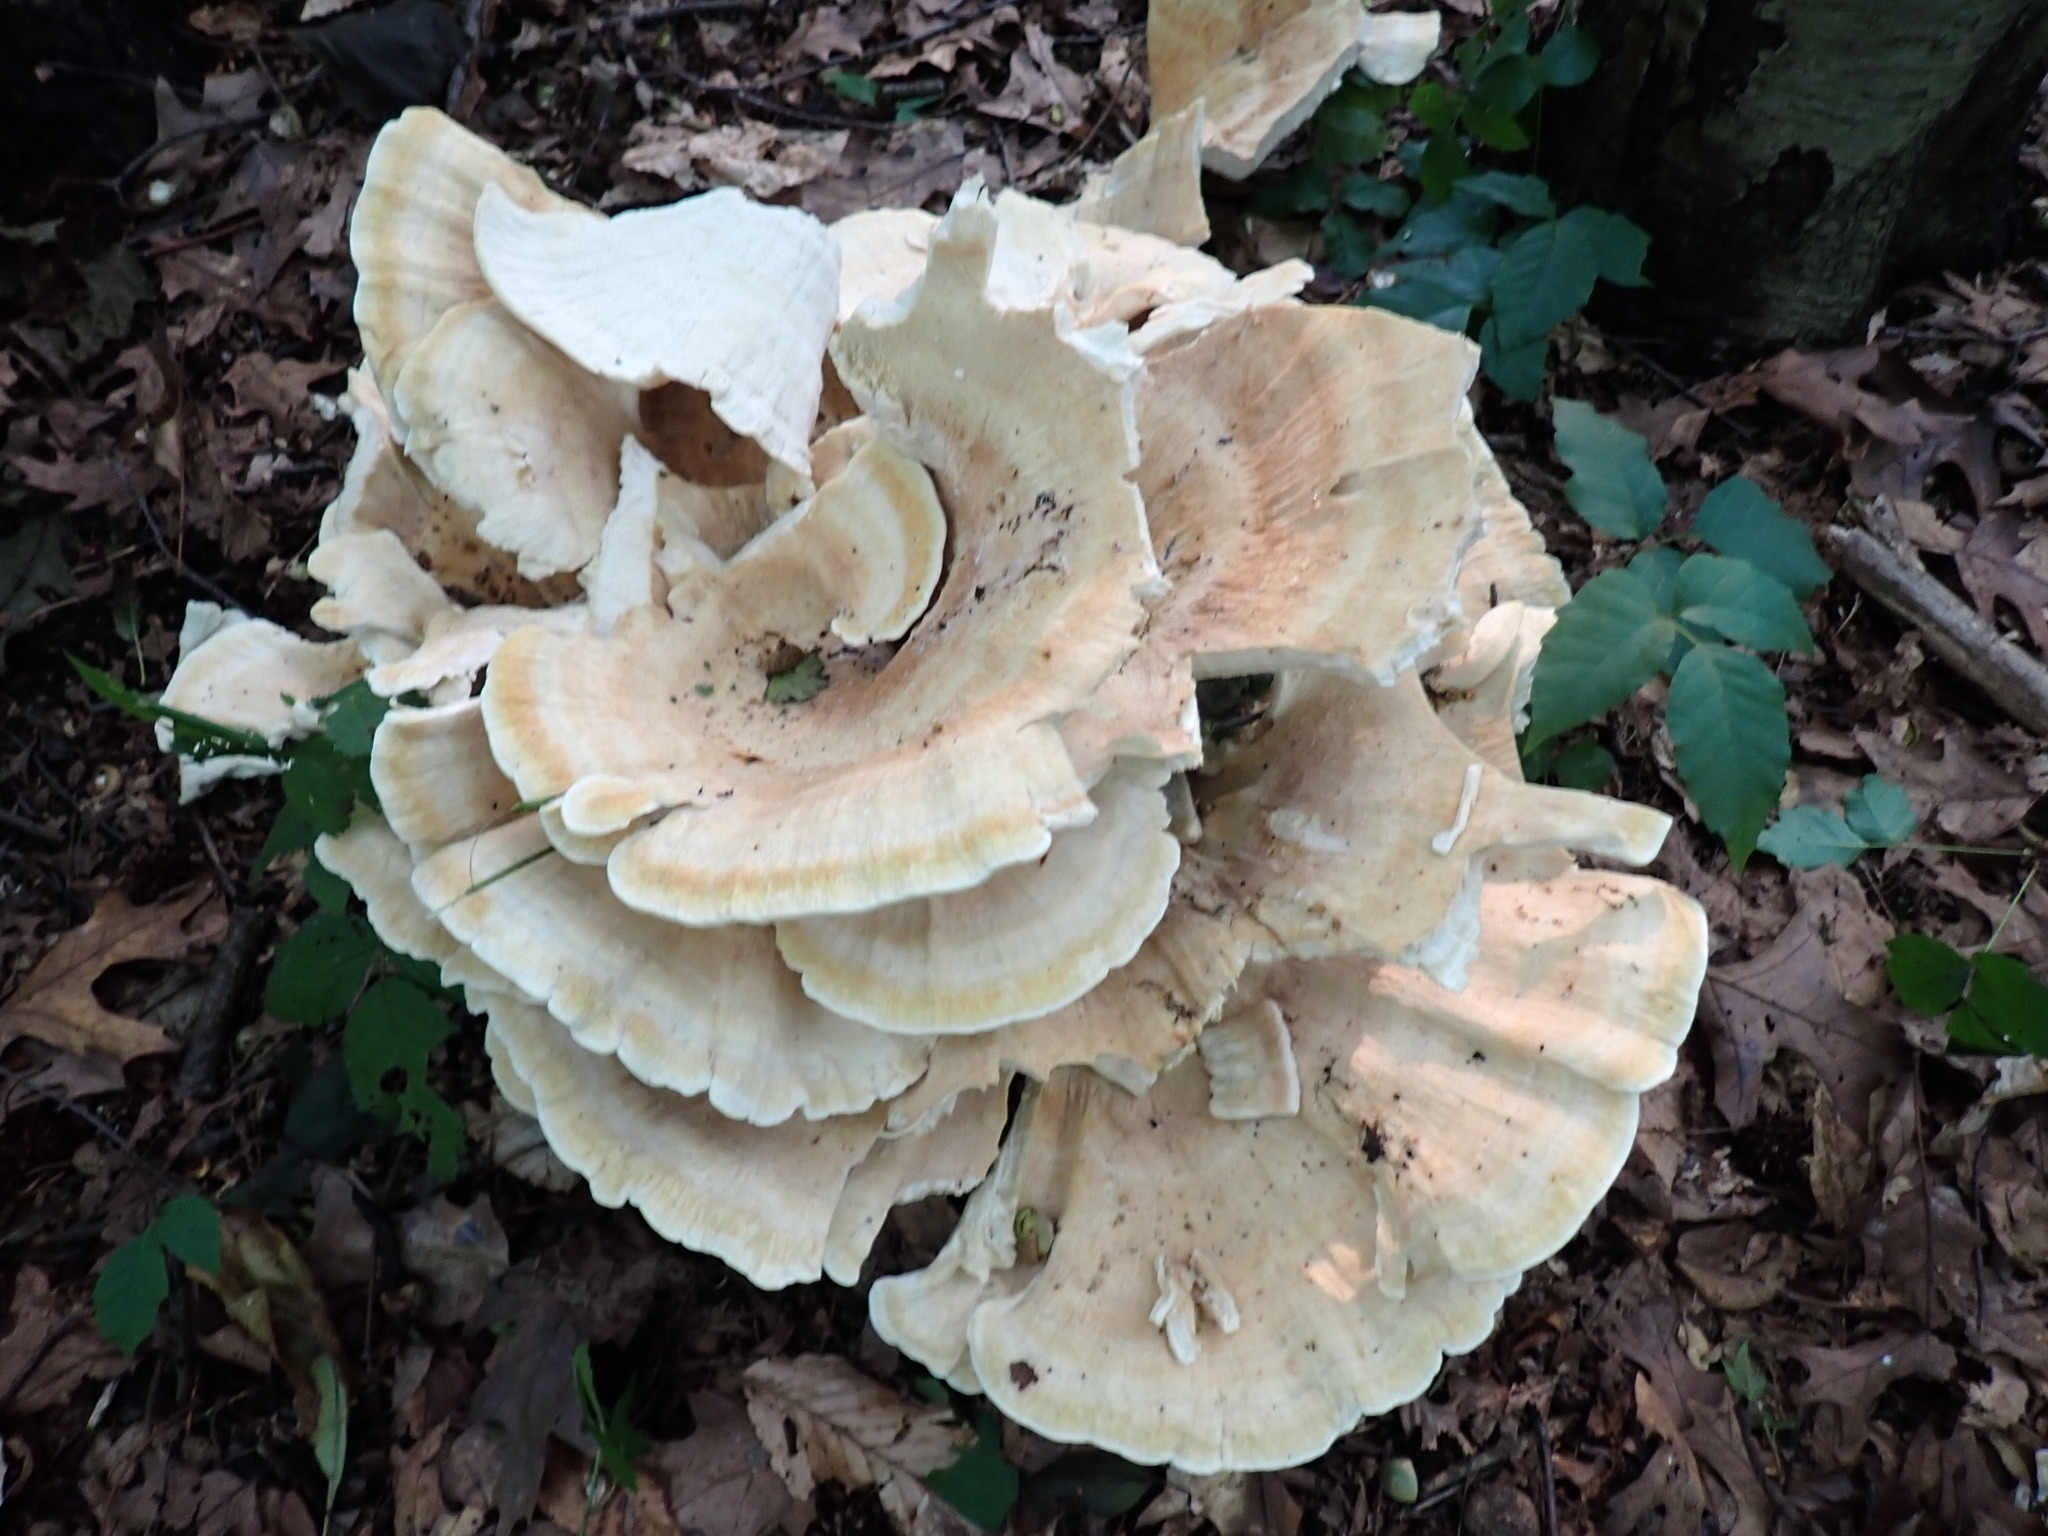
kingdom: Fungi
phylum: Basidiomycota
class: Agaricomycetes
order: Russulales
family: Bondarzewiaceae
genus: Bondarzewia
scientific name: Bondarzewia berkeleyi
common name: Berkeley's polypore
